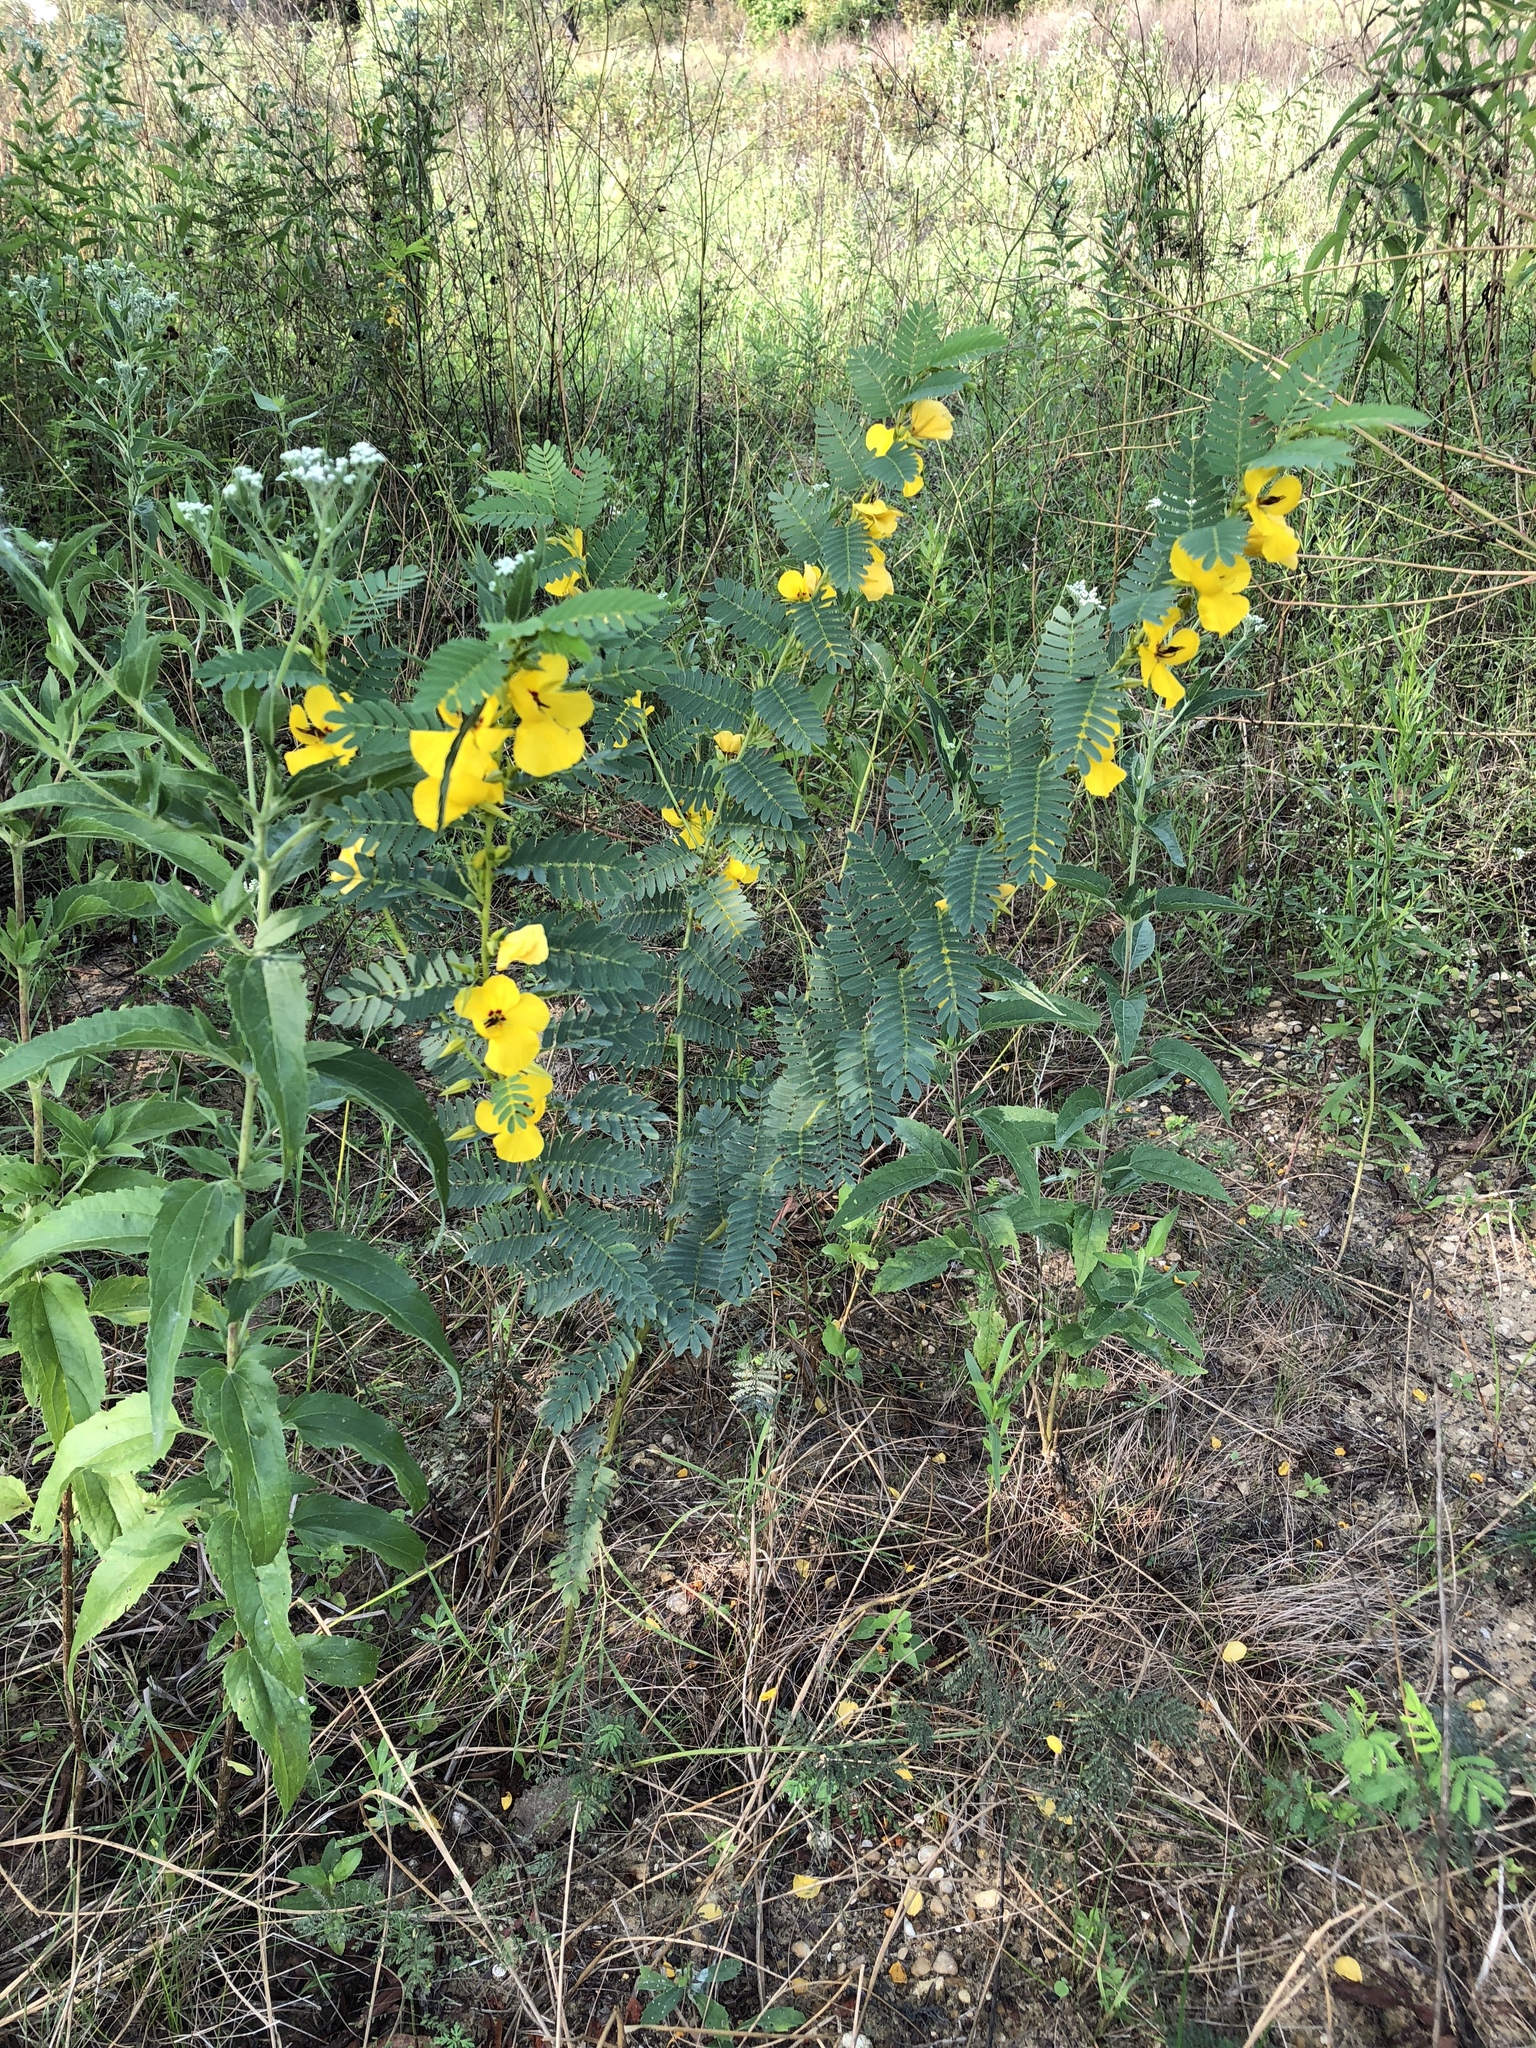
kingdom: Plantae
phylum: Tracheophyta
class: Magnoliopsida
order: Fabales
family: Fabaceae
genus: Chamaecrista
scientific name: Chamaecrista fasciculata
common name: Golden cassia
